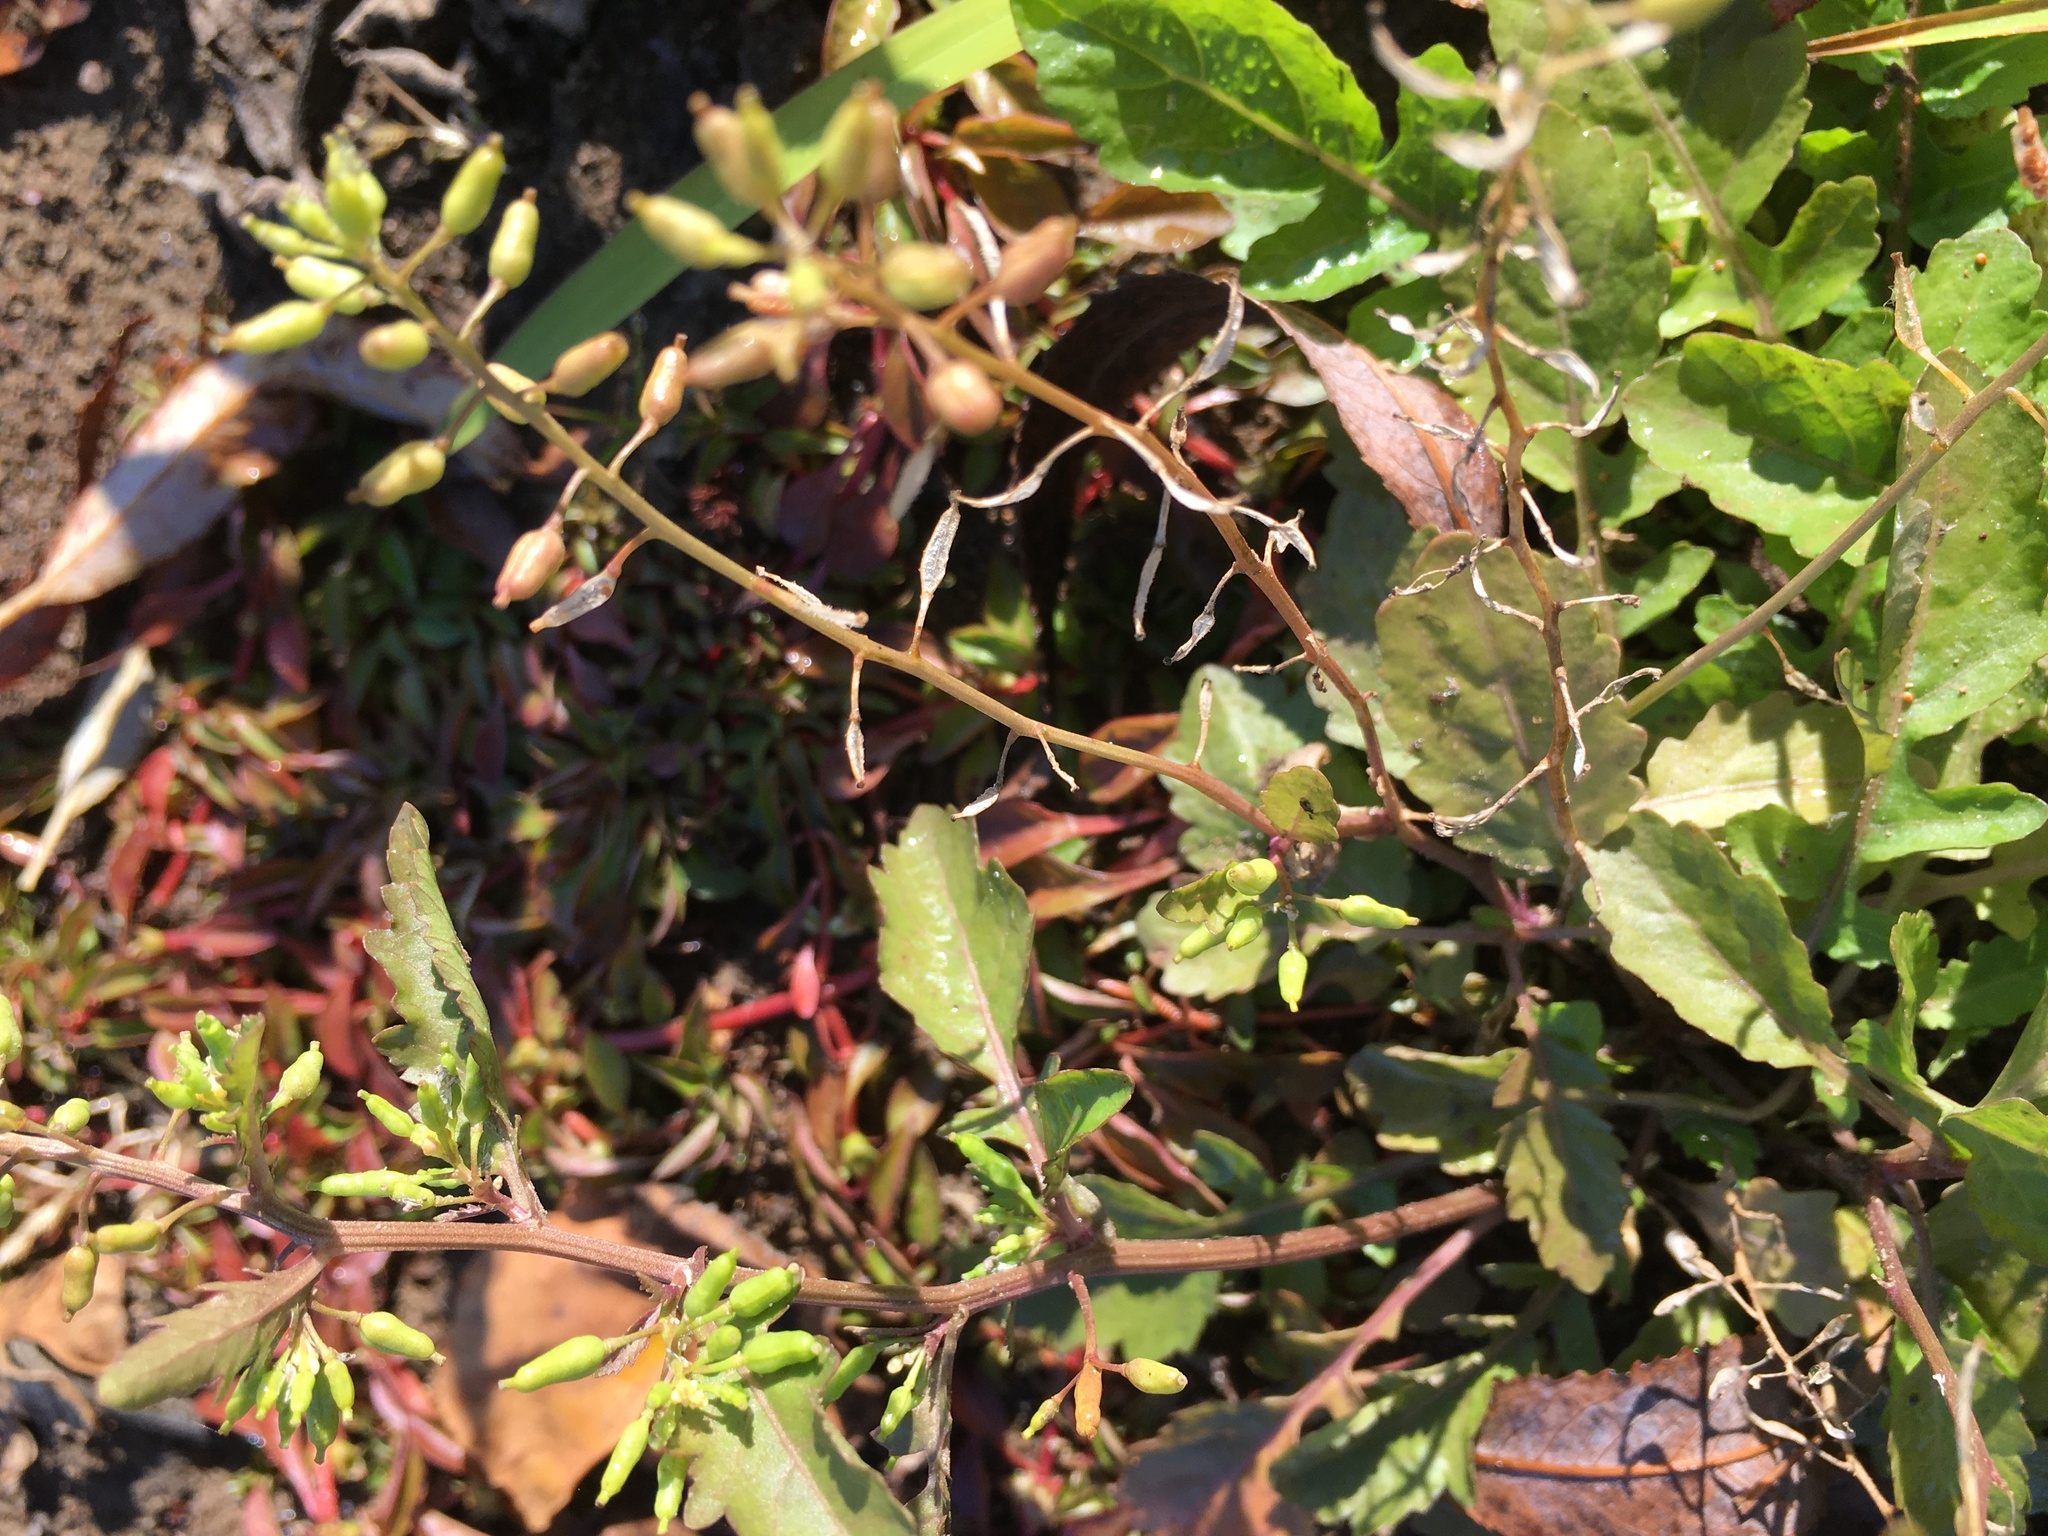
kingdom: Plantae
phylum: Tracheophyta
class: Magnoliopsida
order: Brassicales
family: Brassicaceae
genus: Rorippa
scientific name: Rorippa palustris
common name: Marsh yellow-cress
